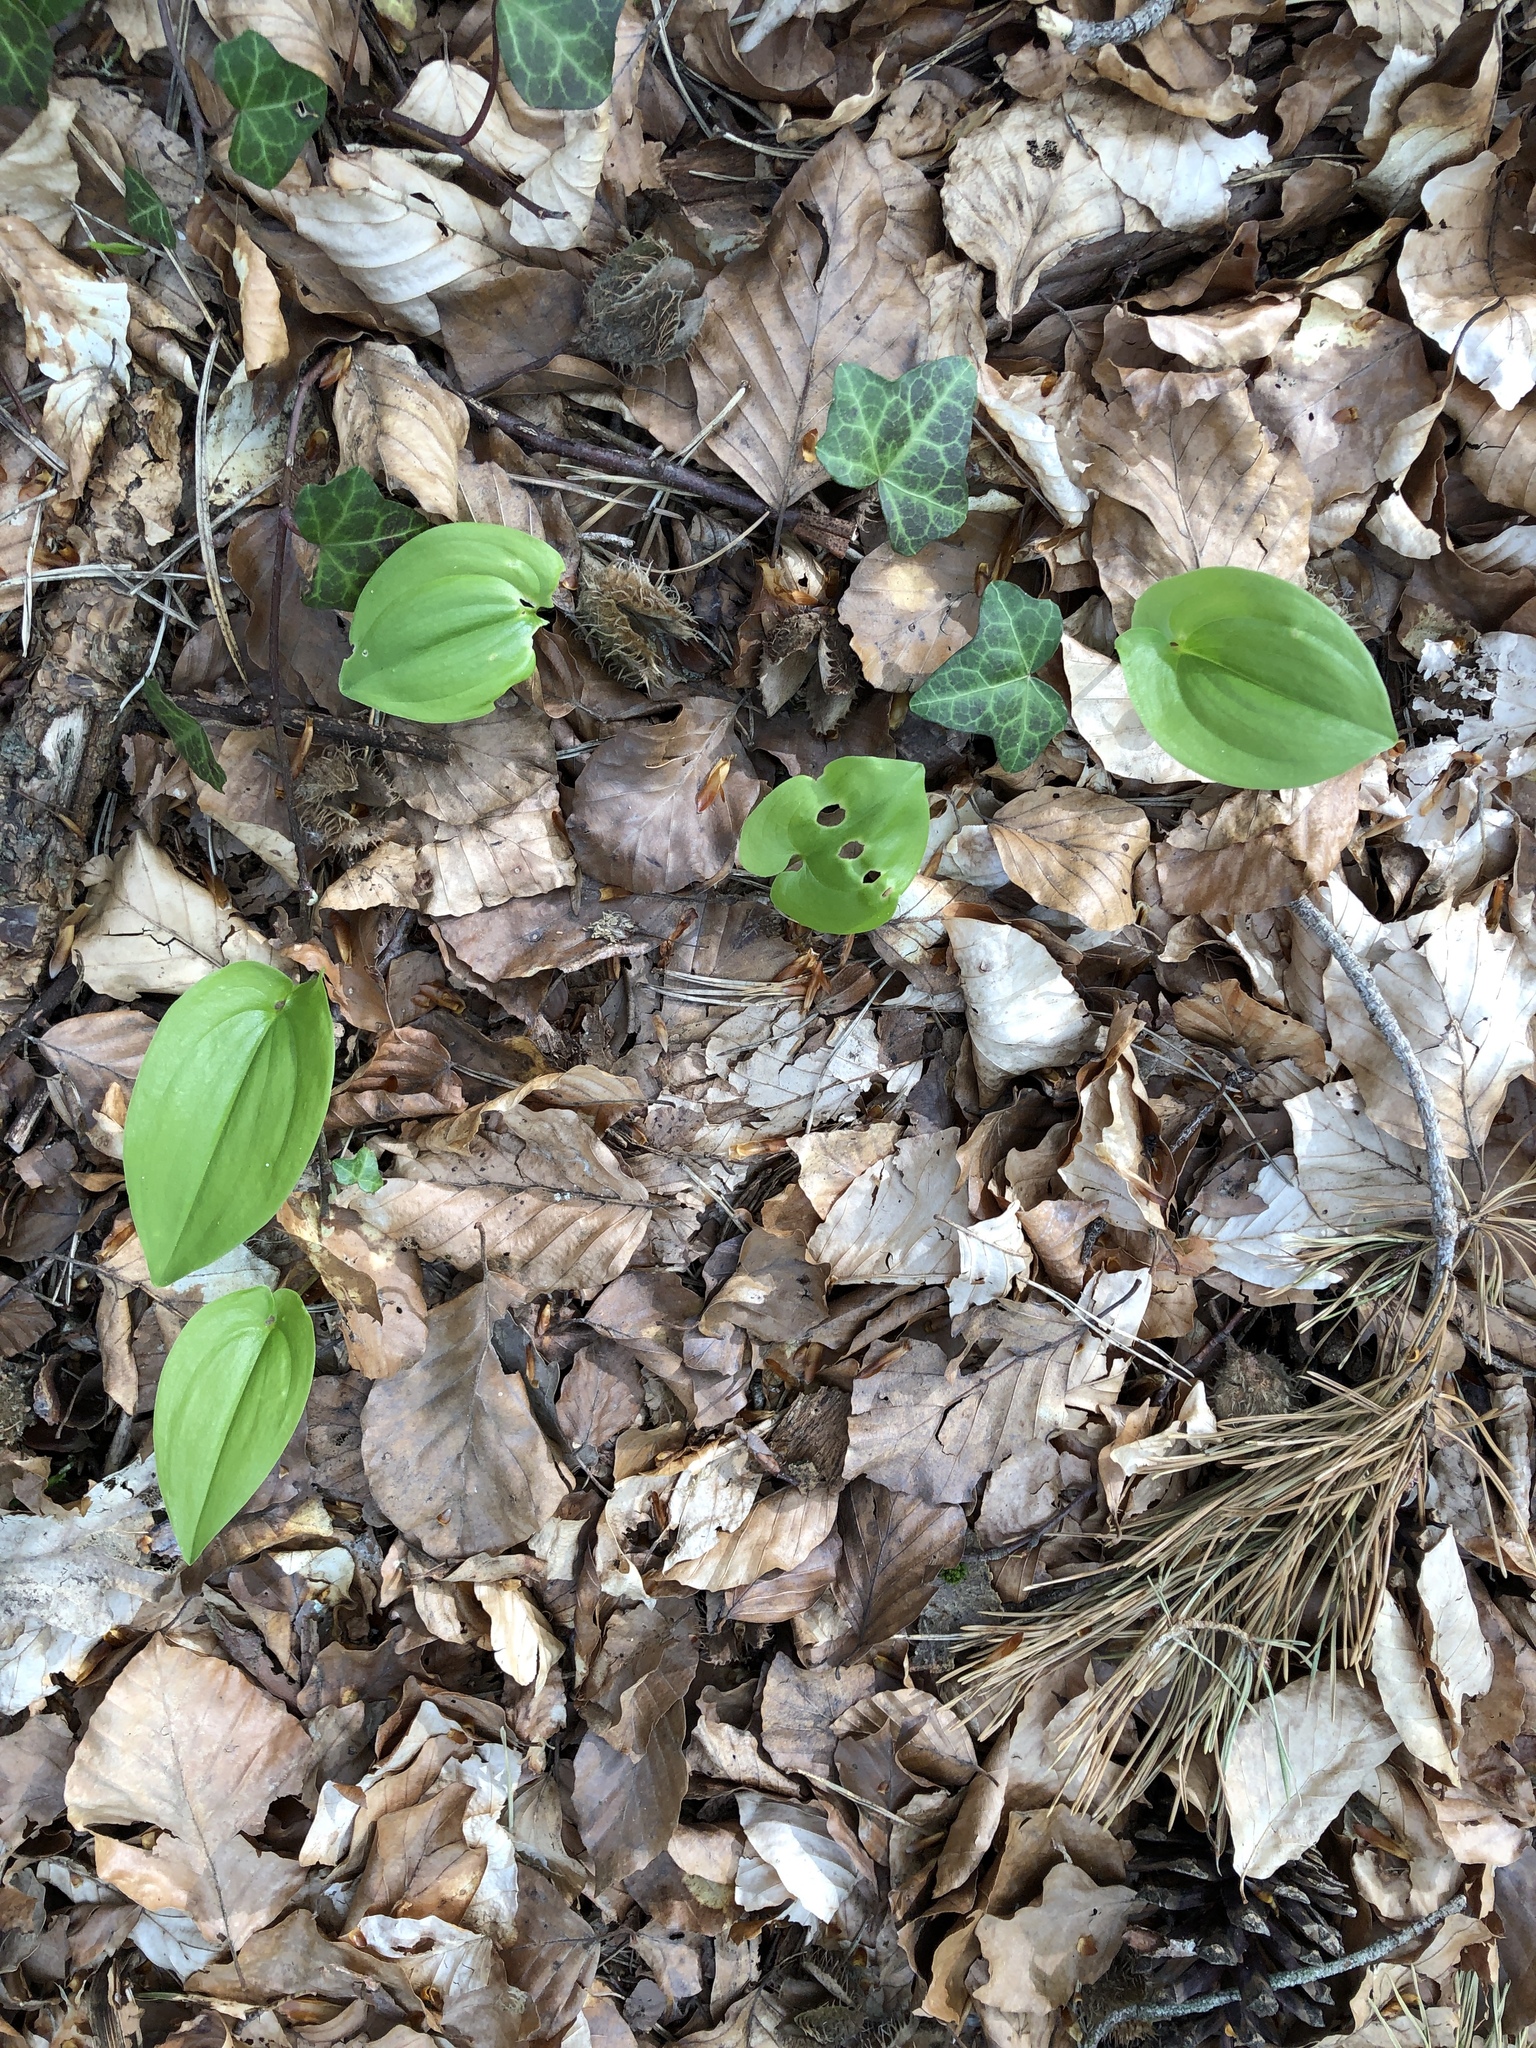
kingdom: Plantae
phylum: Tracheophyta
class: Liliopsida
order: Asparagales
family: Asparagaceae
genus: Maianthemum
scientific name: Maianthemum bifolium
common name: May lily
